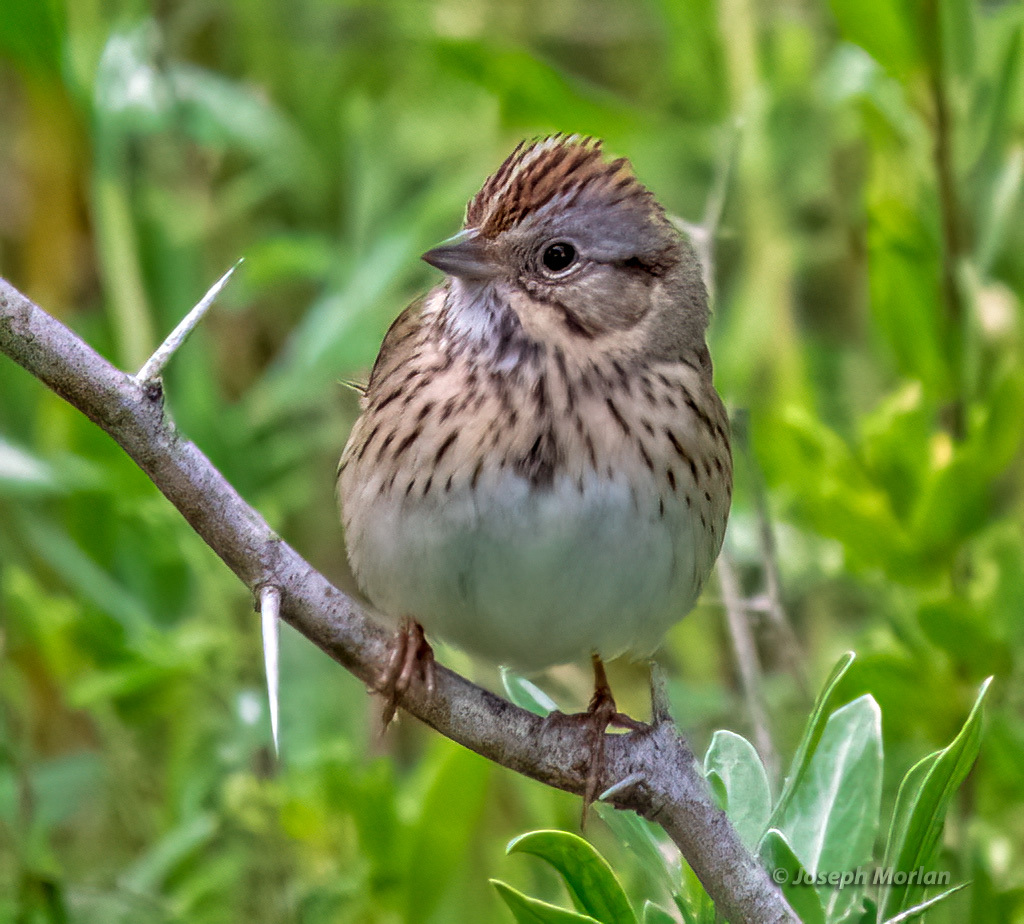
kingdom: Animalia
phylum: Chordata
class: Aves
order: Passeriformes
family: Passerellidae
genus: Melospiza
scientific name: Melospiza lincolnii
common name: Lincoln's sparrow
